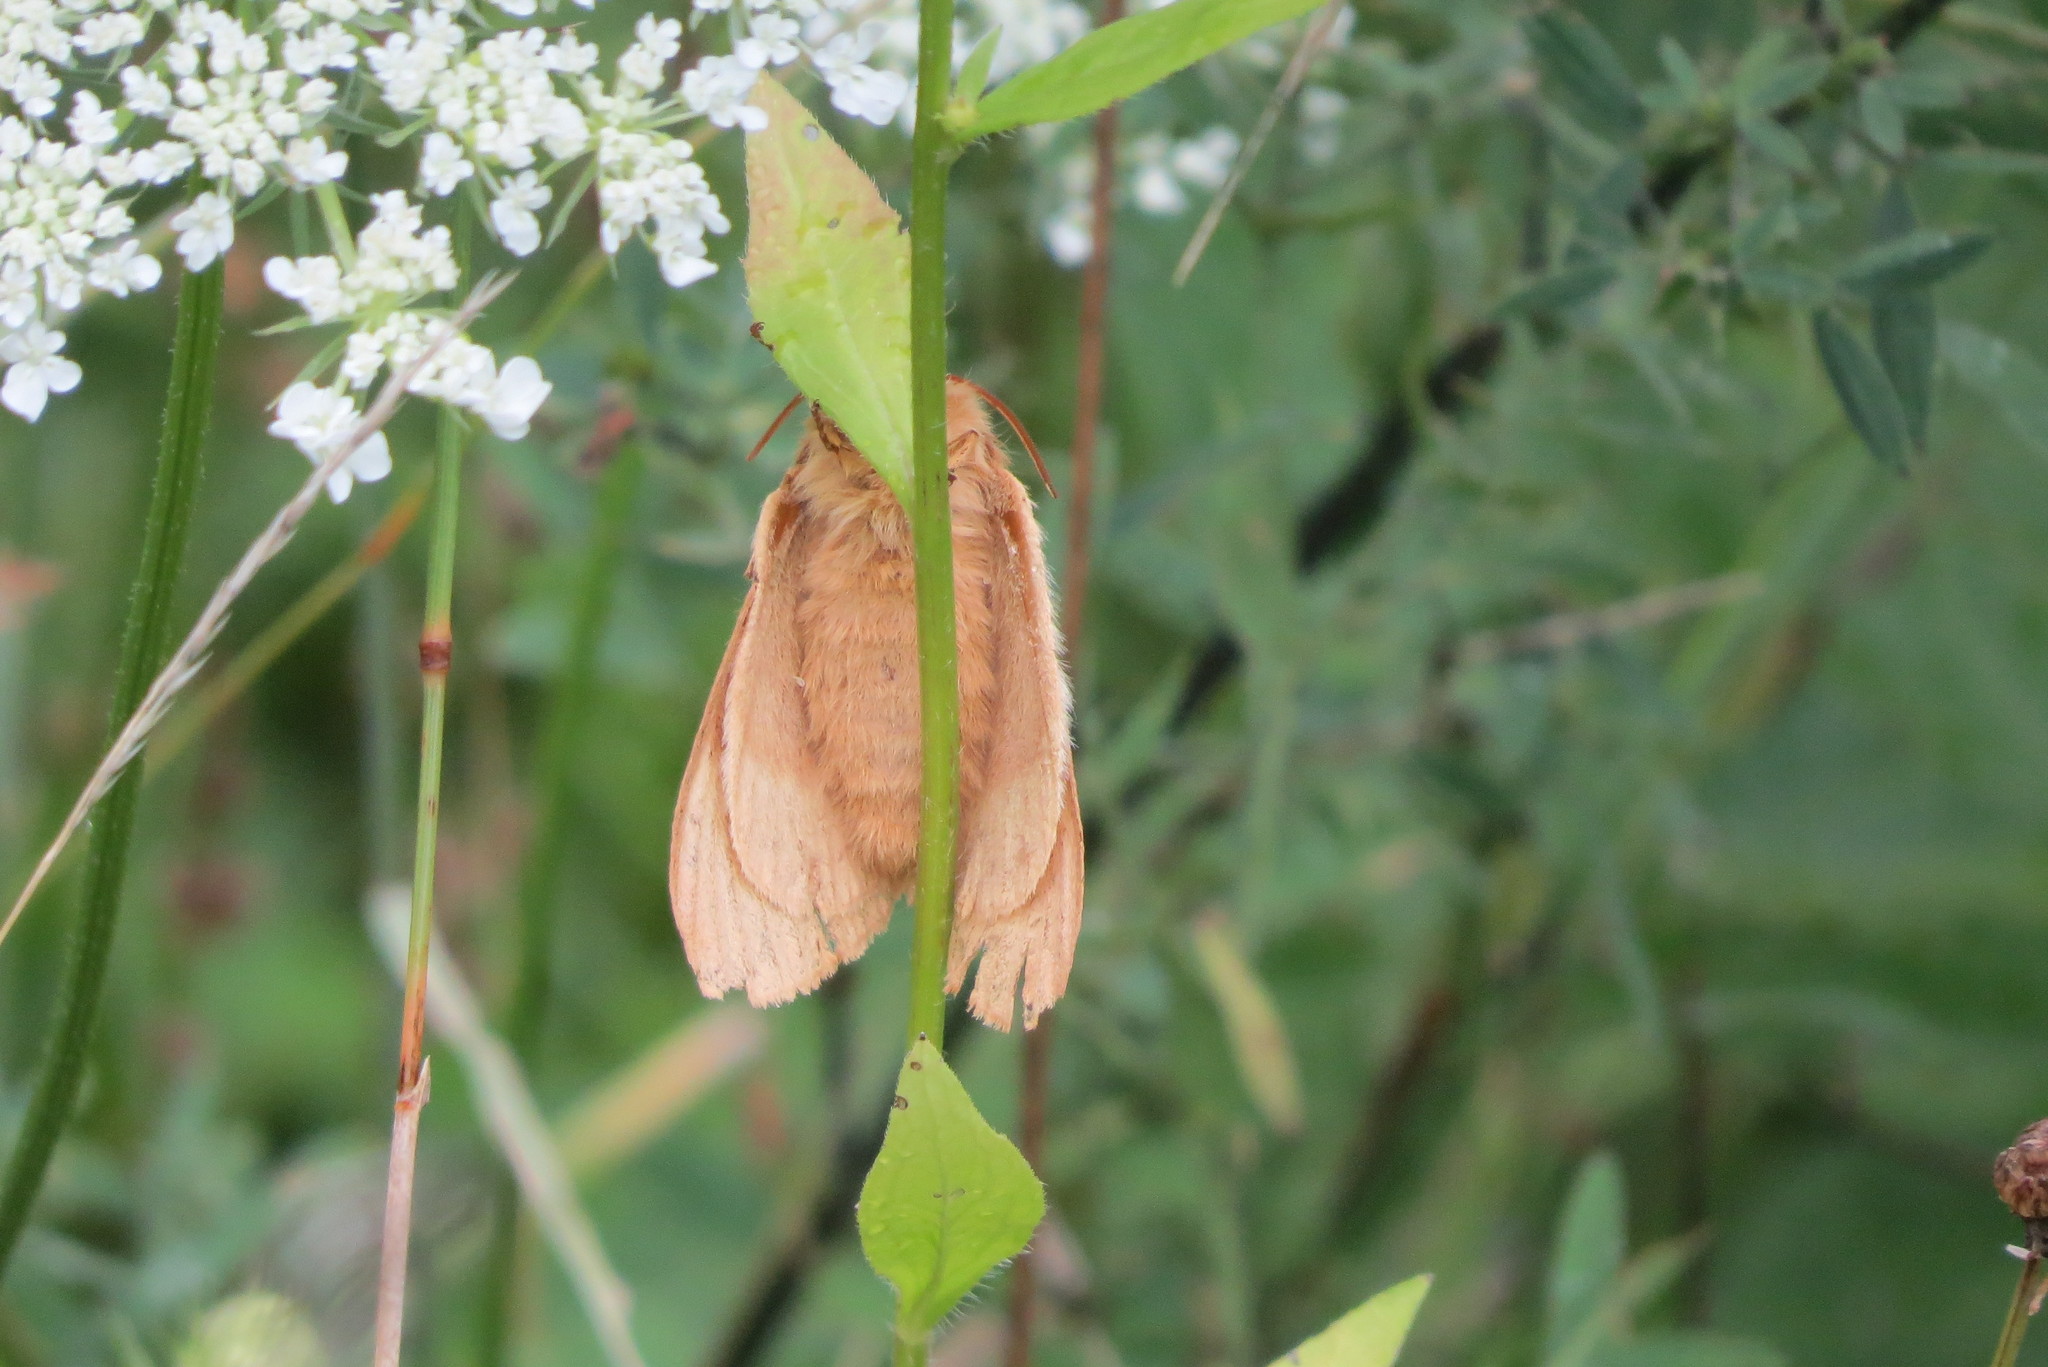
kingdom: Animalia
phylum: Arthropoda
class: Insecta
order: Lepidoptera
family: Lasiocampidae
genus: Lasiocampa
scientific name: Lasiocampa quercus
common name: Oak eggar
